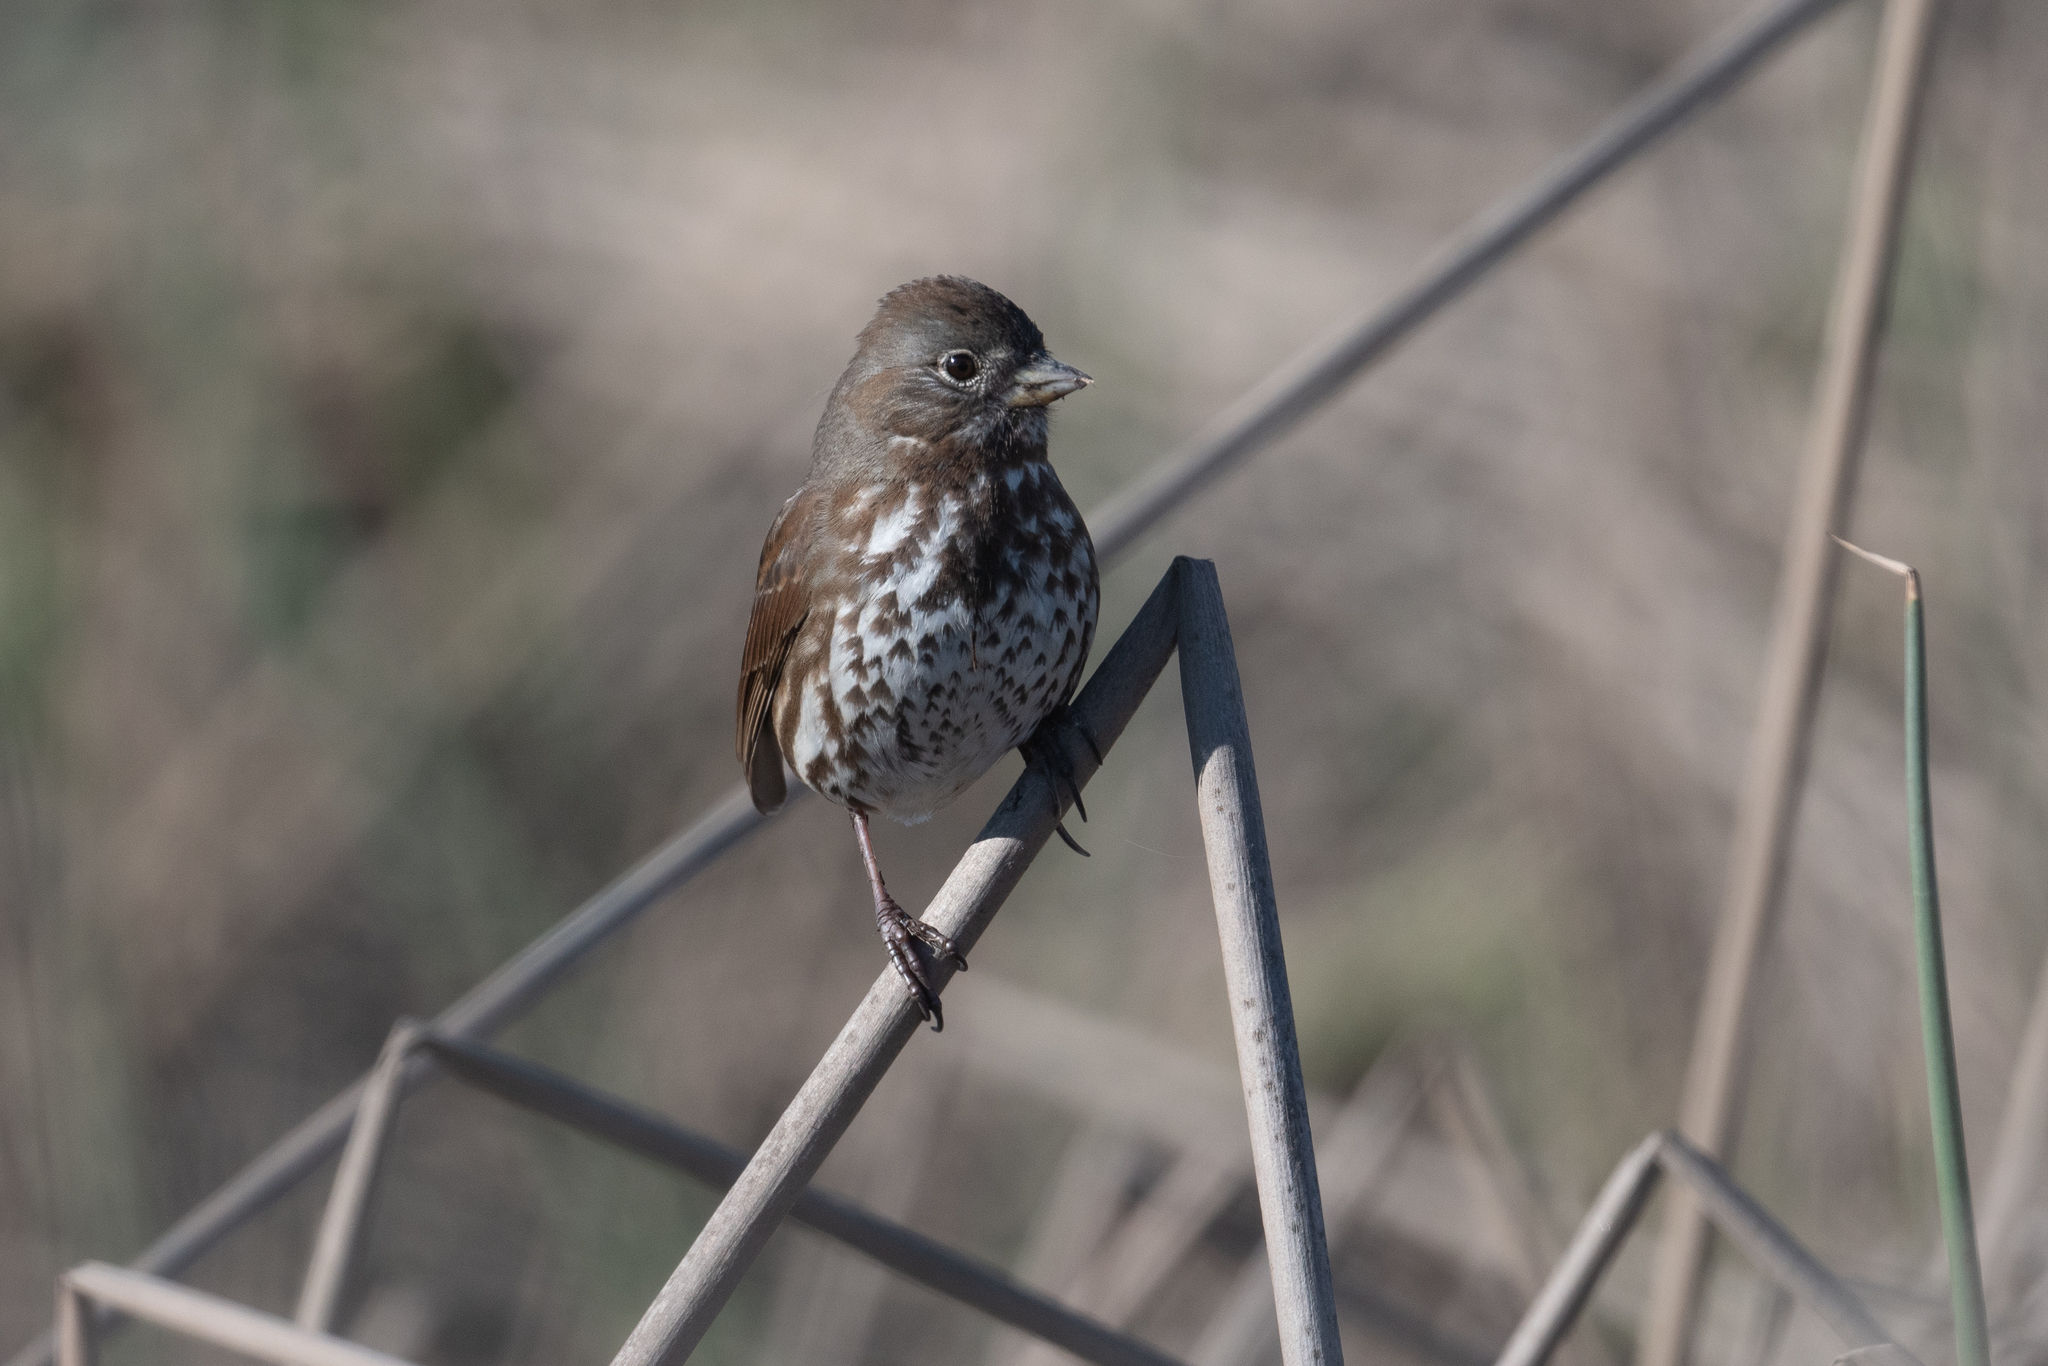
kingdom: Animalia
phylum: Chordata
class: Aves
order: Passeriformes
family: Passerellidae
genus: Passerella
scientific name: Passerella iliaca
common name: Fox sparrow
